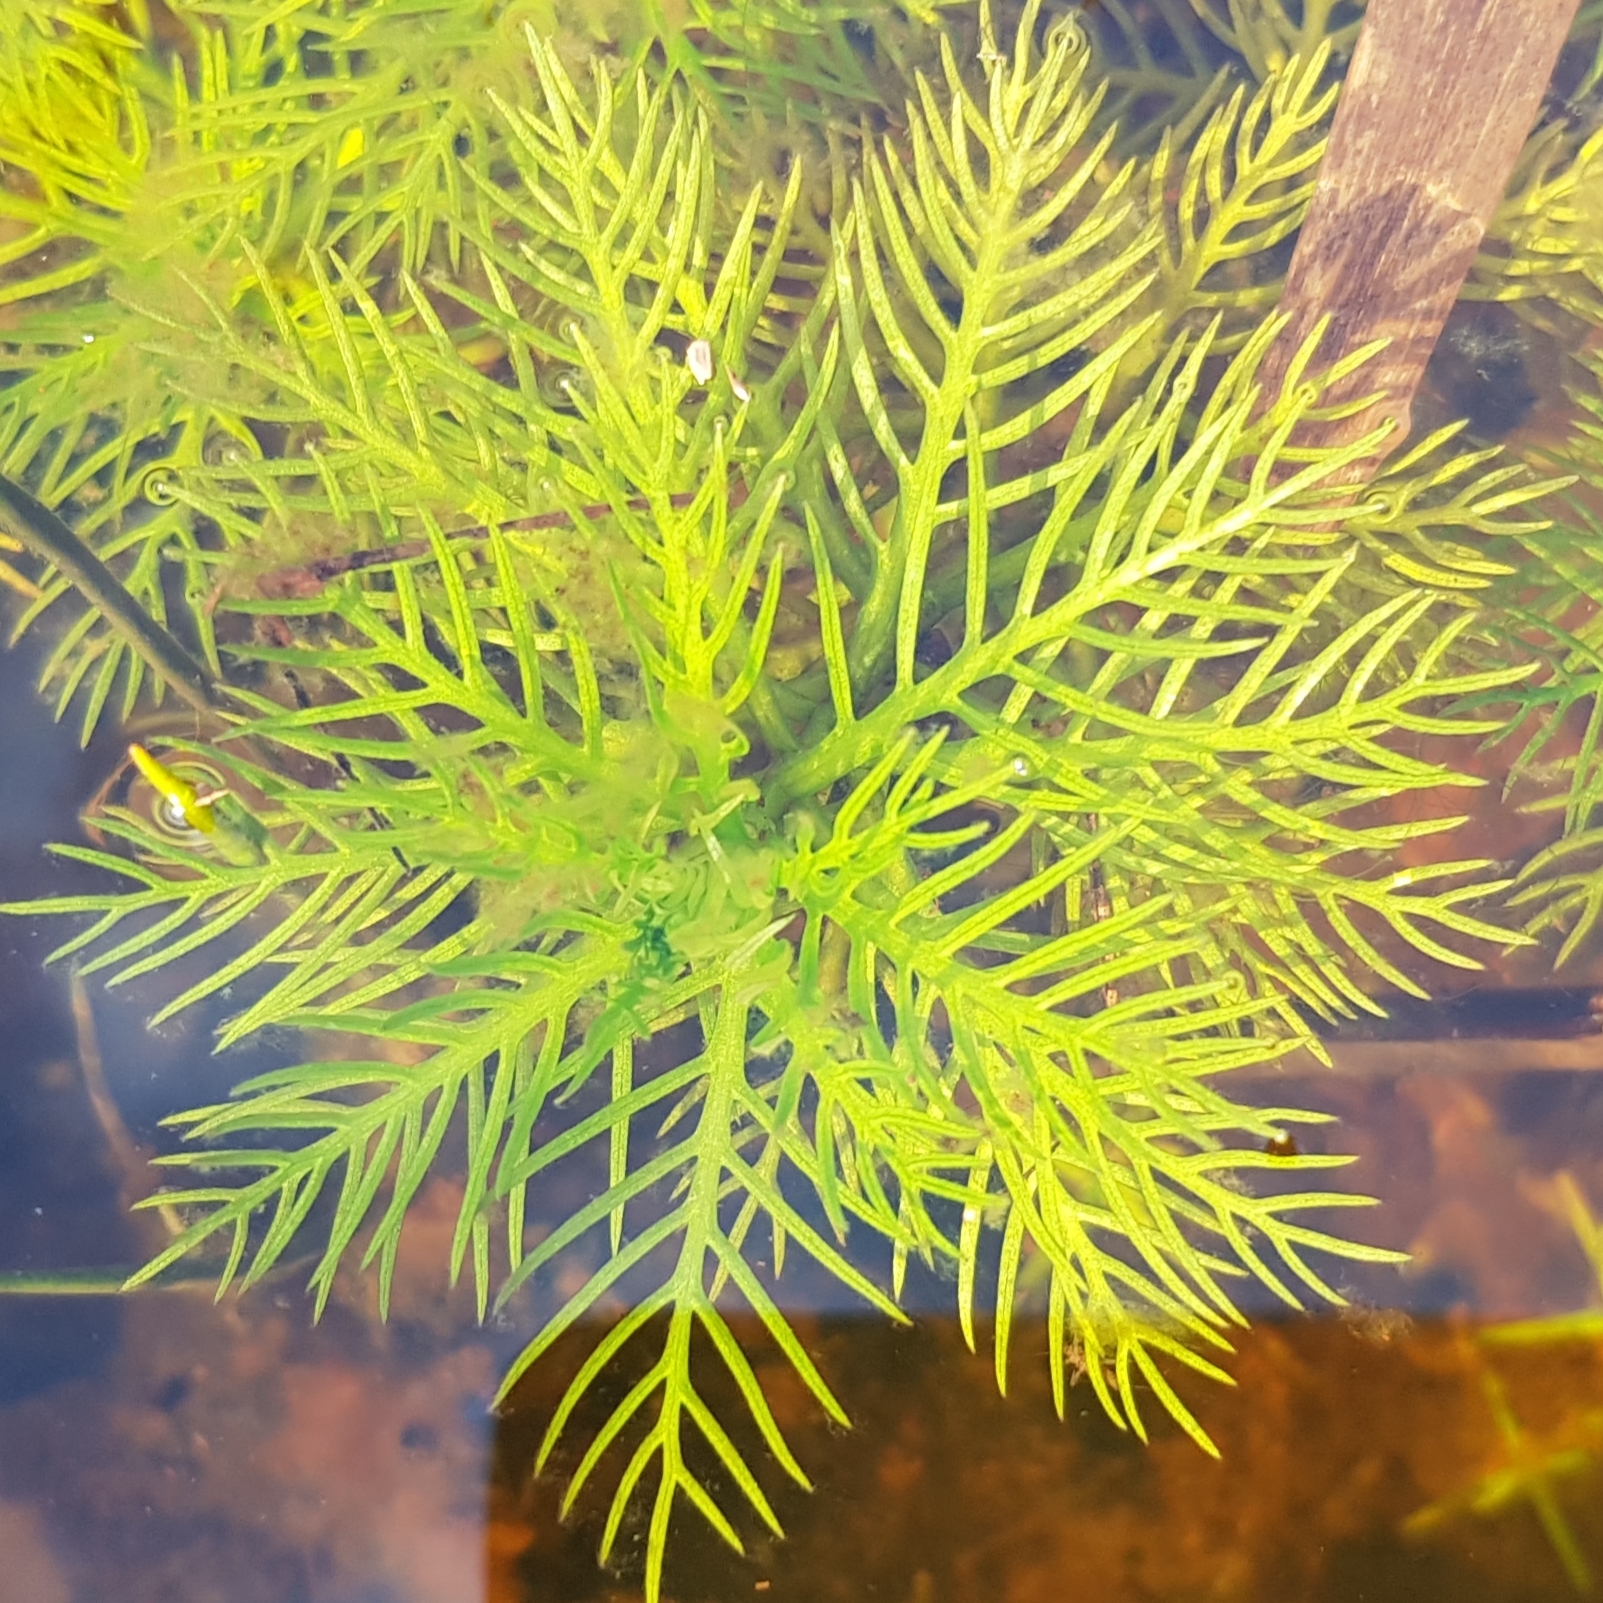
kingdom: Plantae
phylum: Tracheophyta
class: Magnoliopsida
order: Ericales
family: Primulaceae
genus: Hottonia
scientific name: Hottonia palustris
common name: Water-violet
